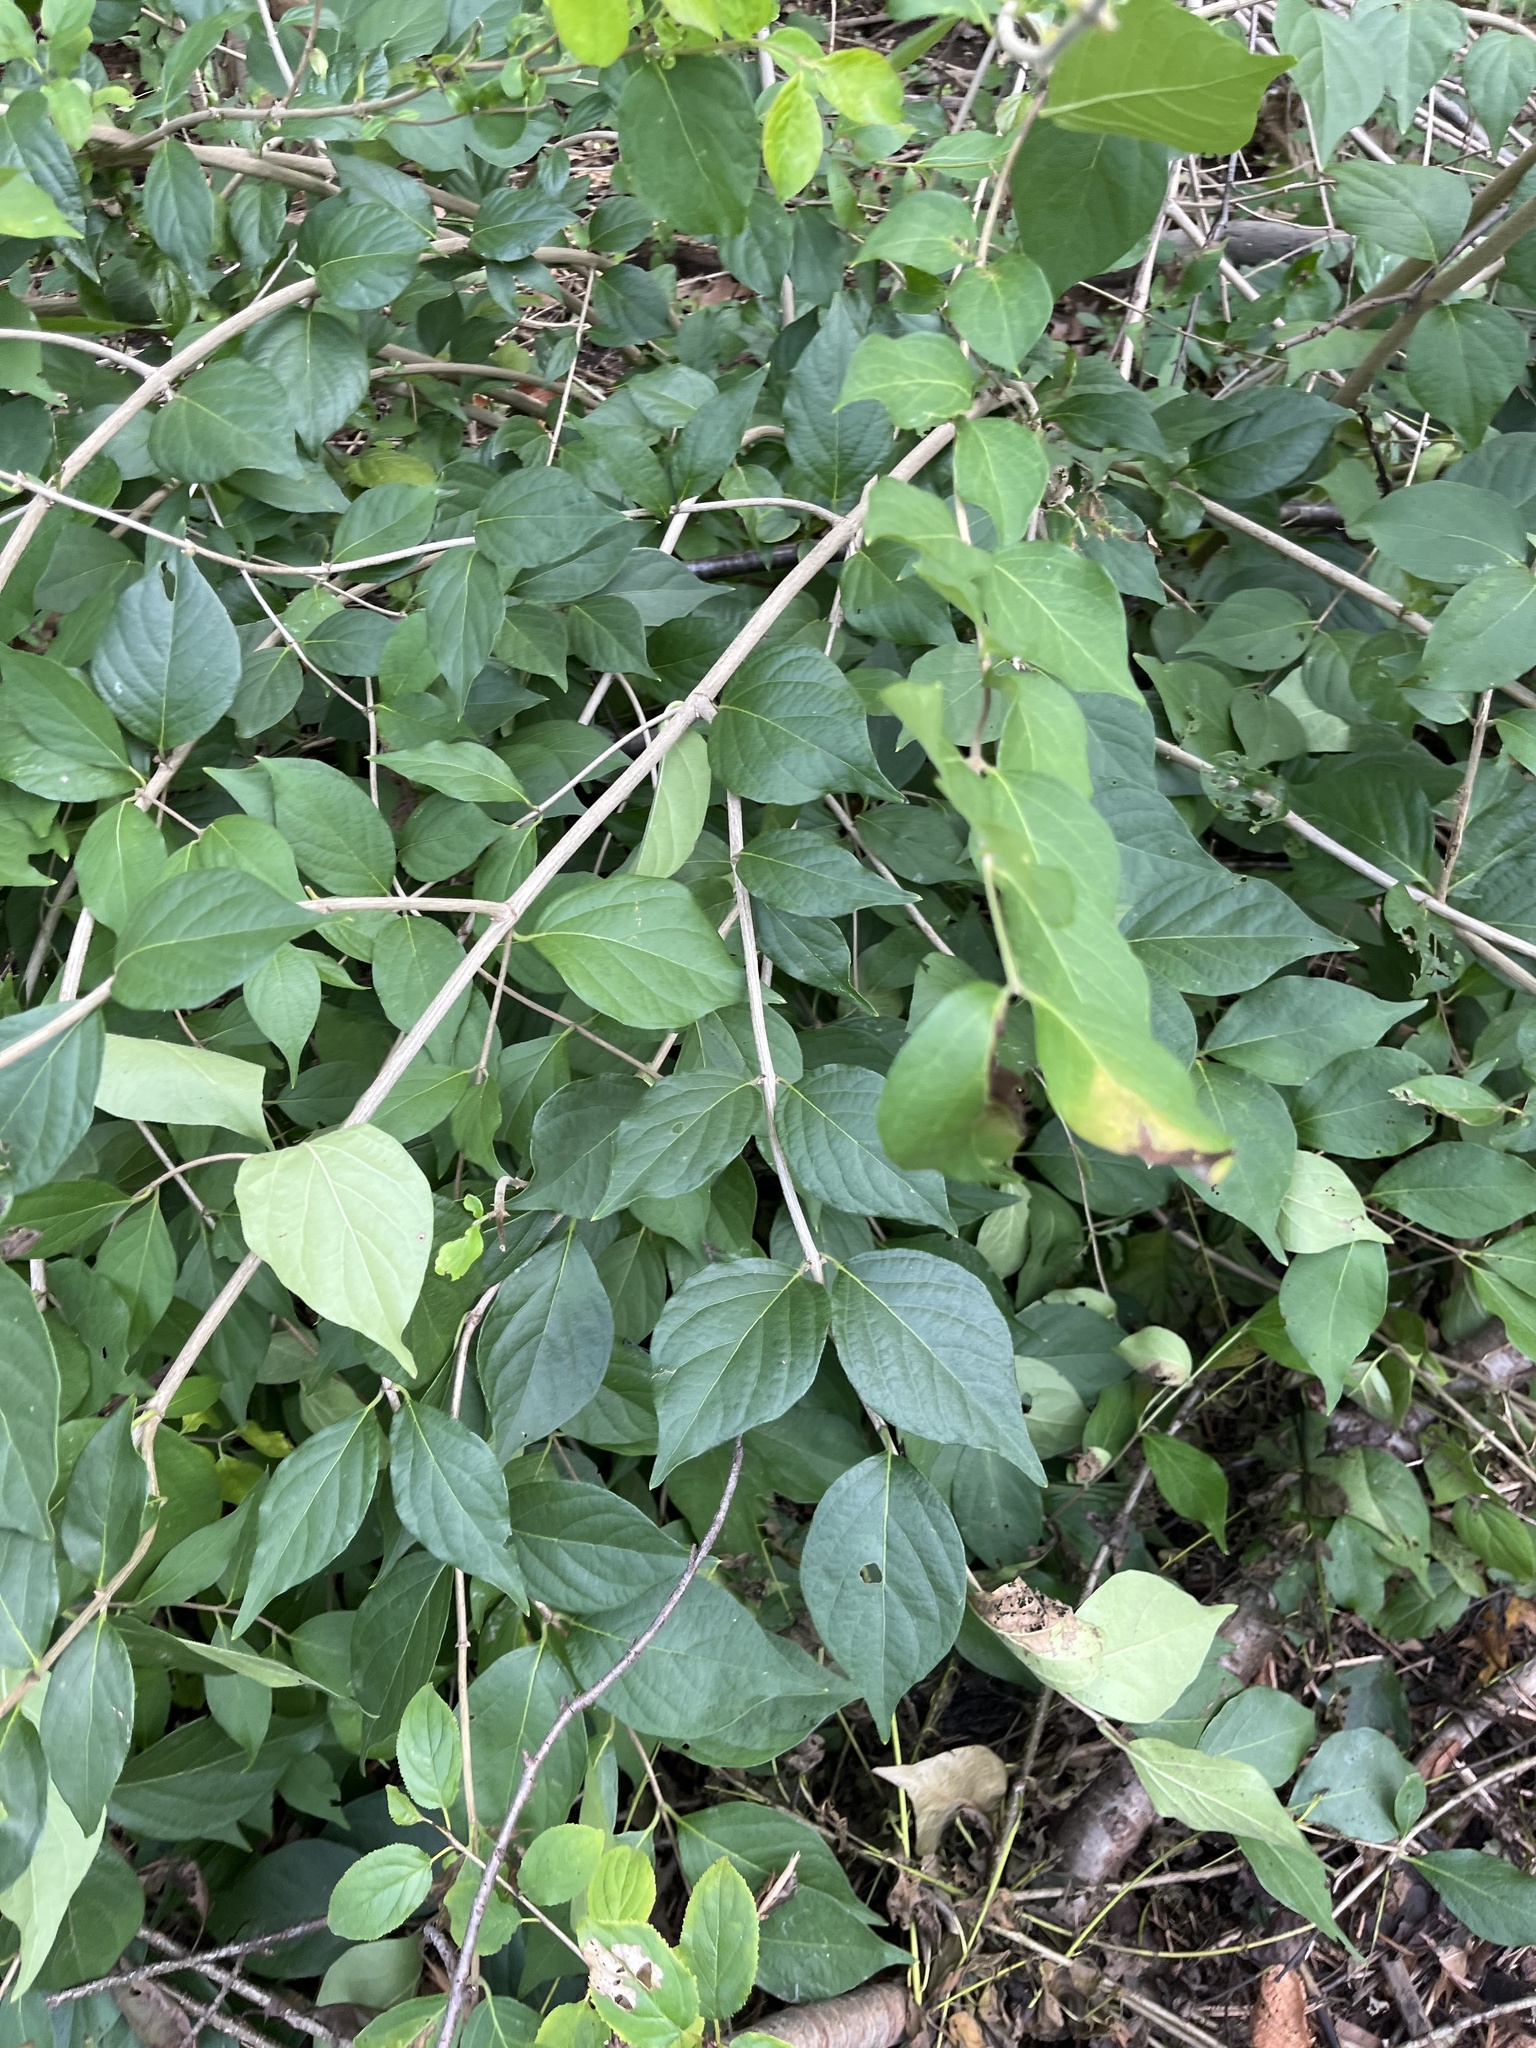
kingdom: Plantae
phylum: Tracheophyta
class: Magnoliopsida
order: Dipsacales
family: Caprifoliaceae
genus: Lonicera
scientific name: Lonicera maackii
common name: Amur honeysuckle
